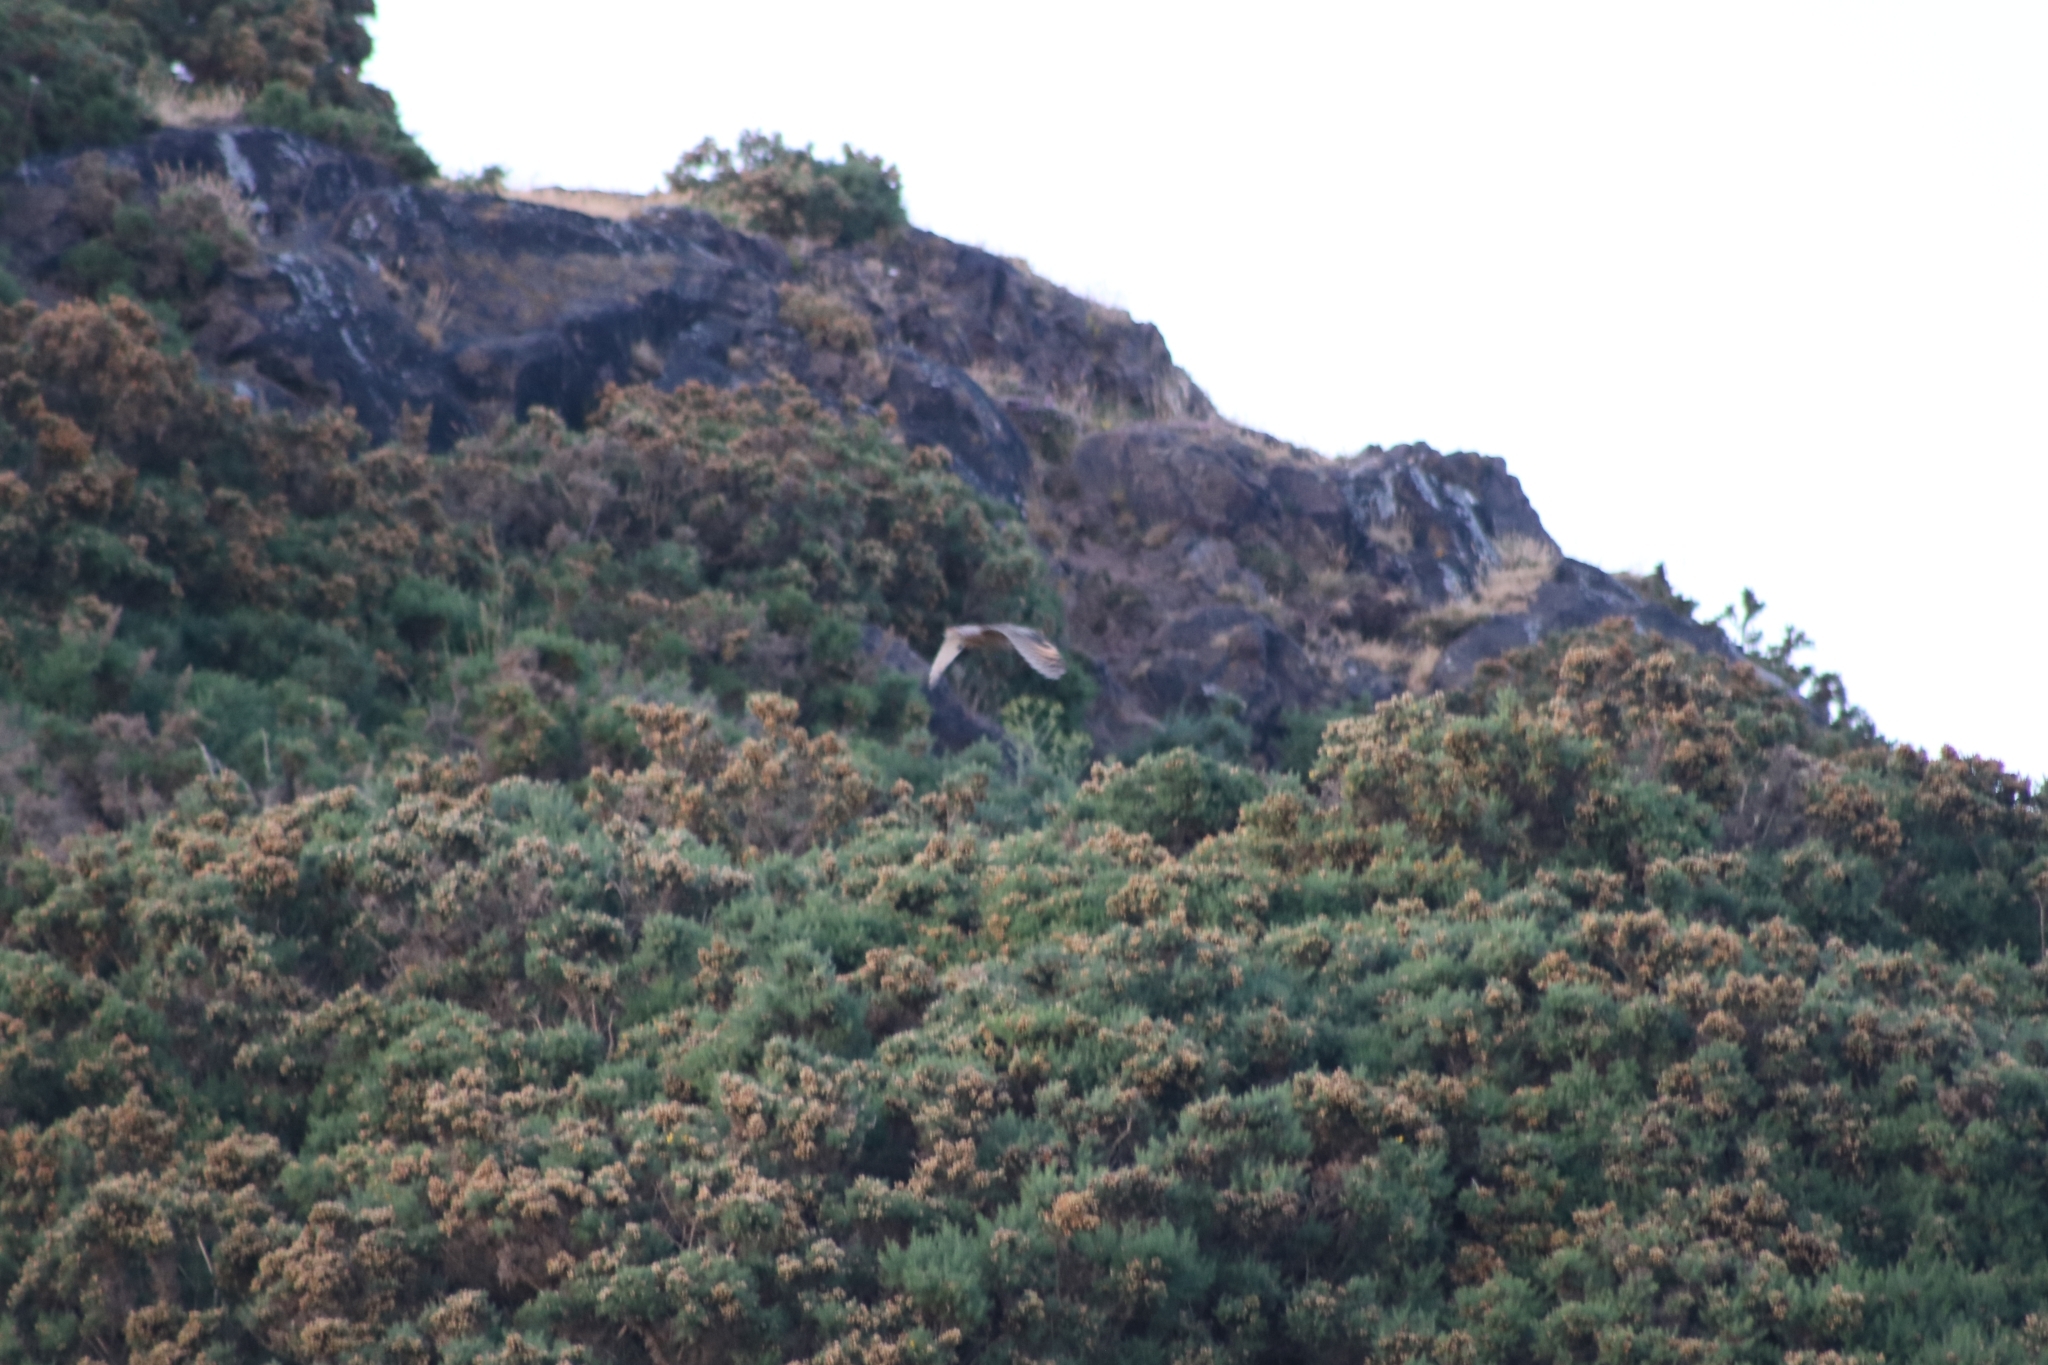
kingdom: Animalia
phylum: Chordata
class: Aves
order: Strigiformes
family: Strigidae
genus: Asio
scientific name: Asio otus
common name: Long-eared owl
